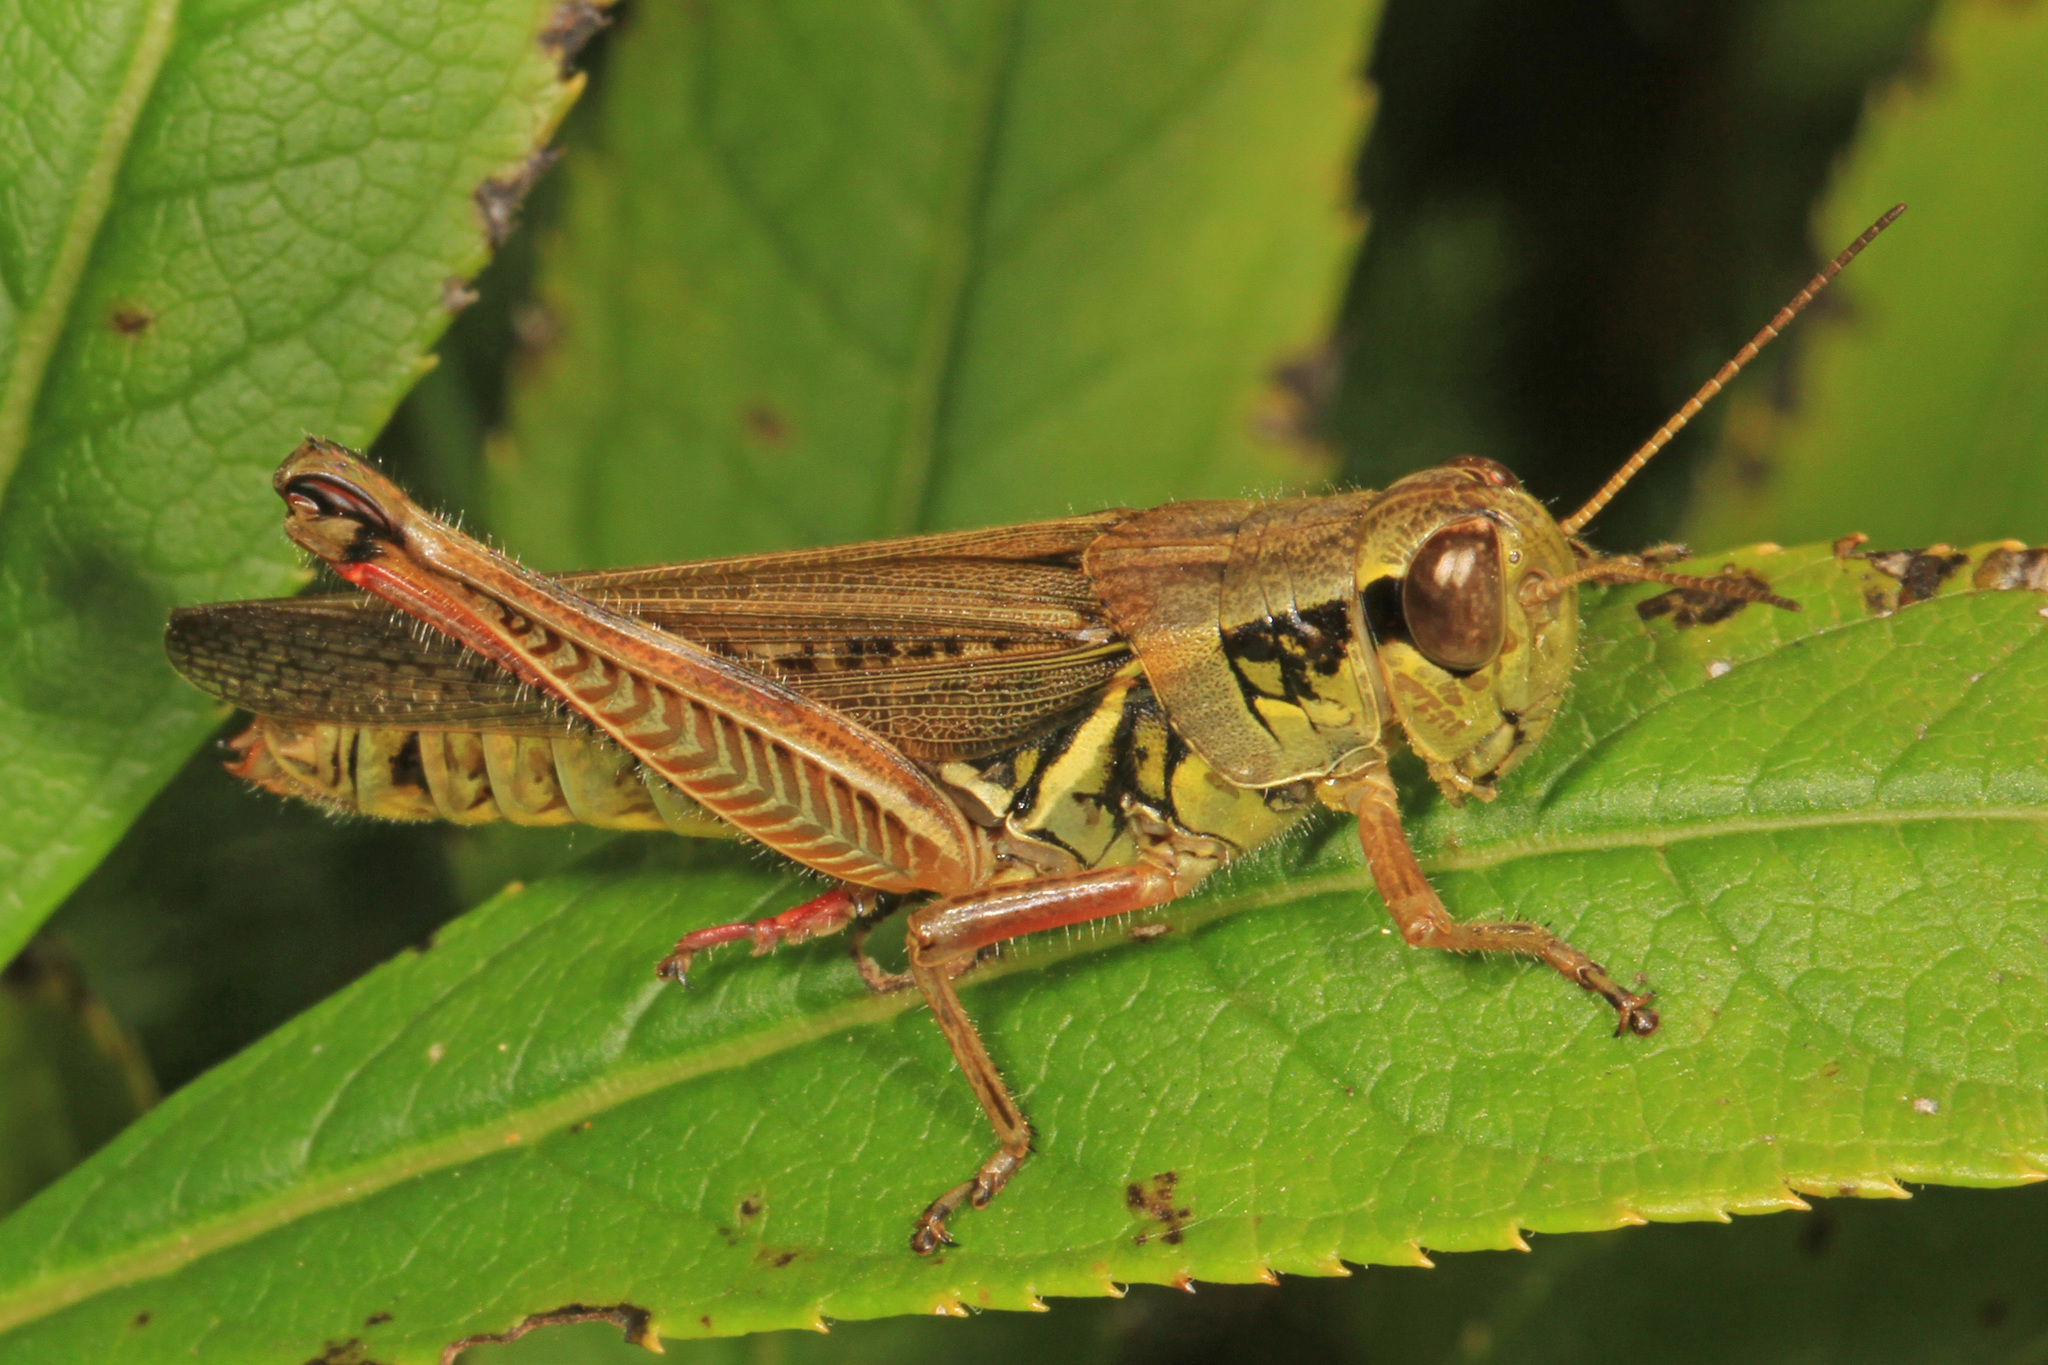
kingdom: Animalia
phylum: Arthropoda
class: Insecta
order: Orthoptera
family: Acrididae
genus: Melanoplus
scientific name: Melanoplus femurrubrum
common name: Red-legged grasshopper
